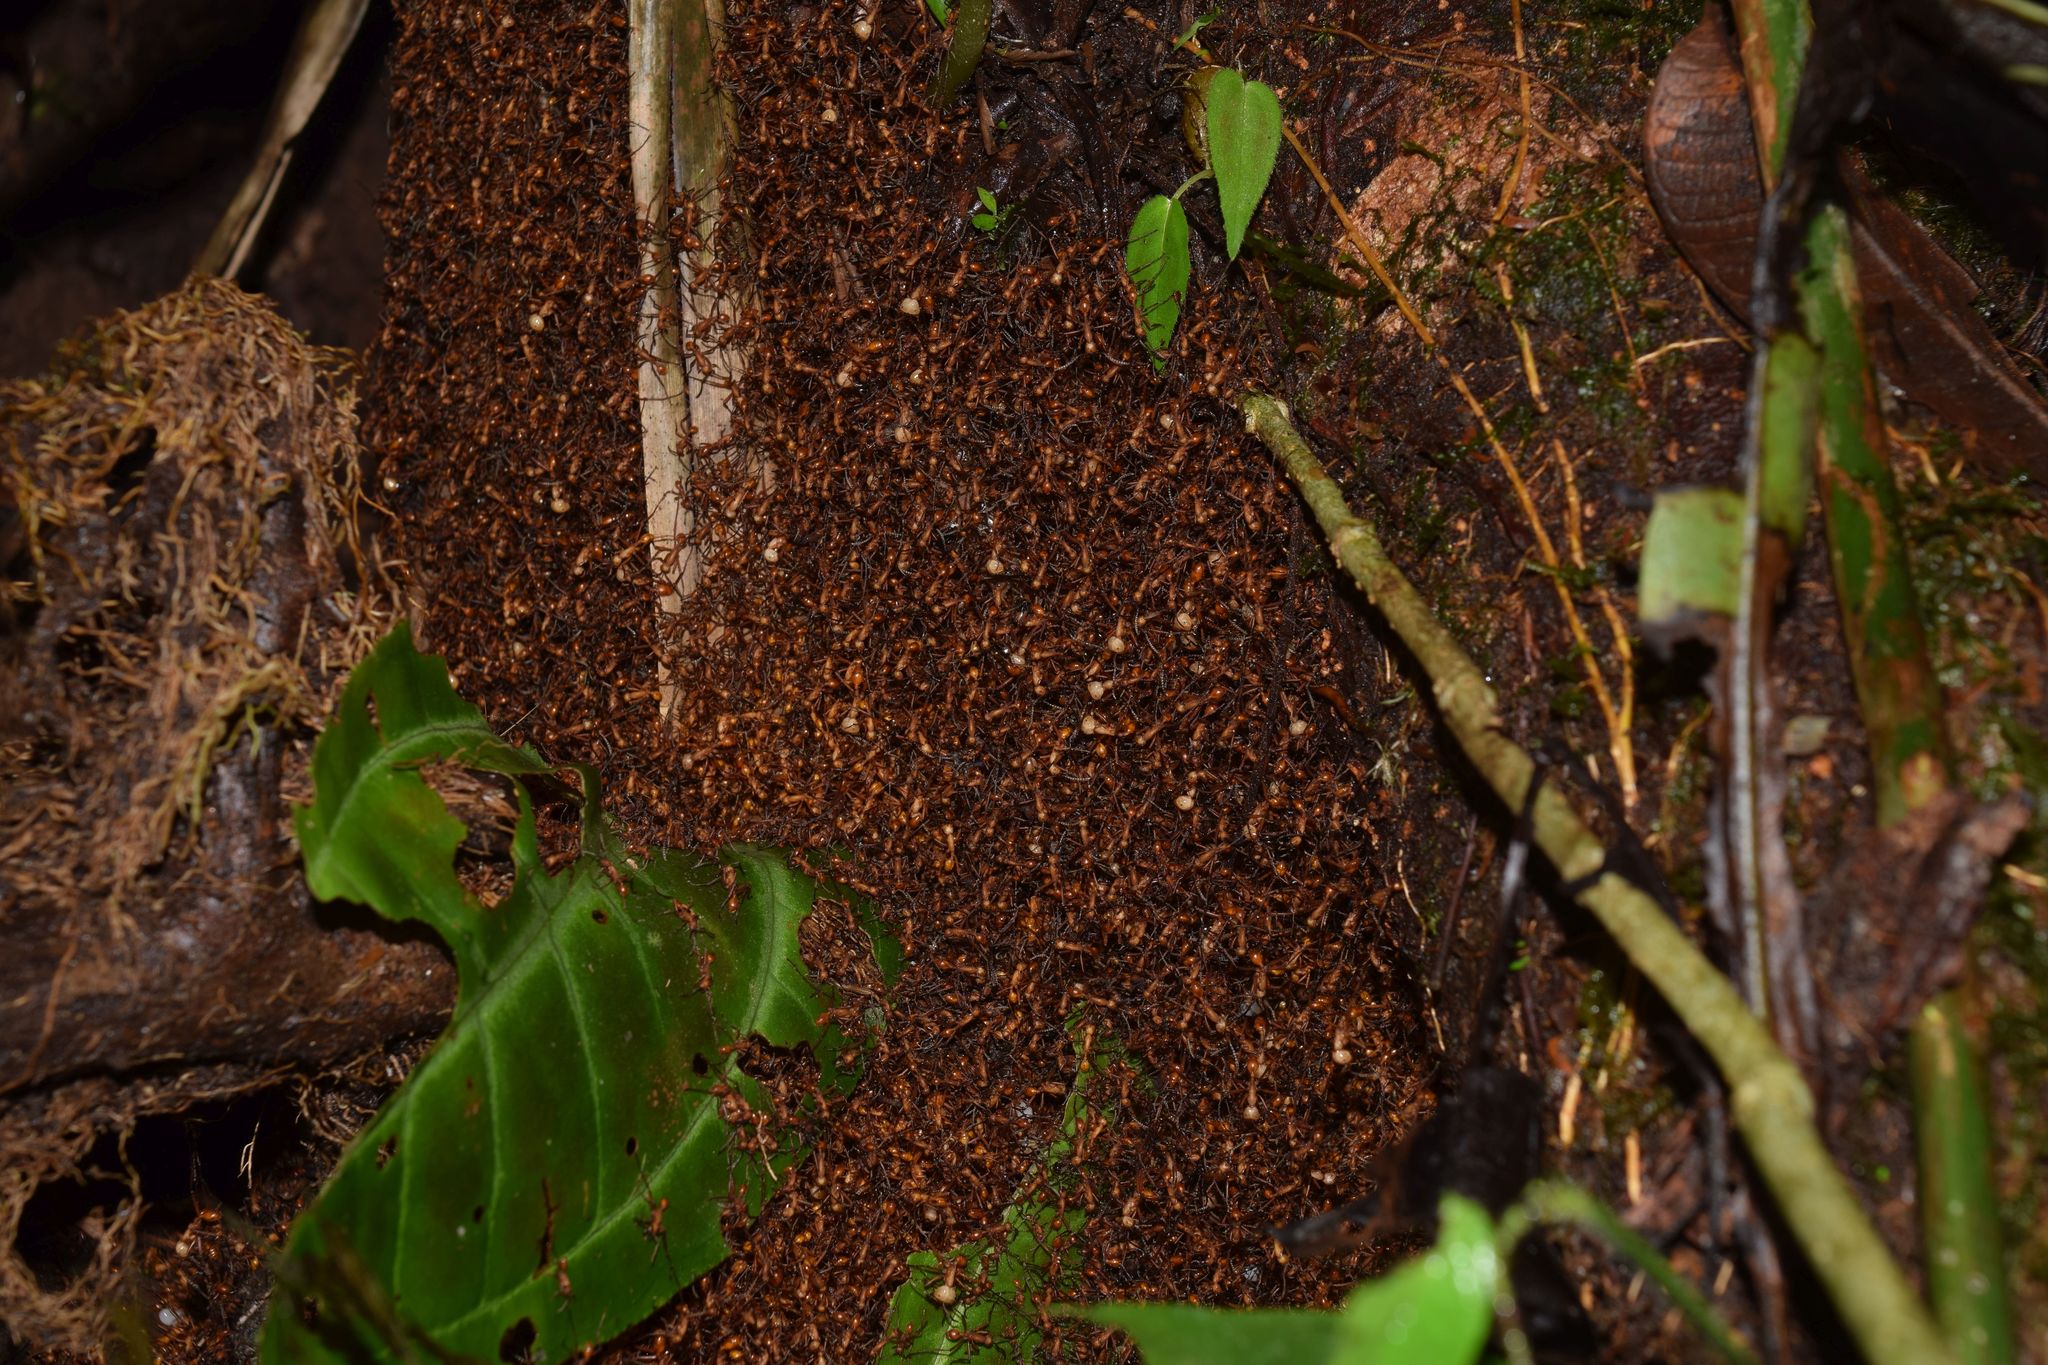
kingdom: Animalia
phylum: Arthropoda
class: Insecta
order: Hymenoptera
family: Formicidae
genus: Eciton
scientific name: Eciton hamatum
